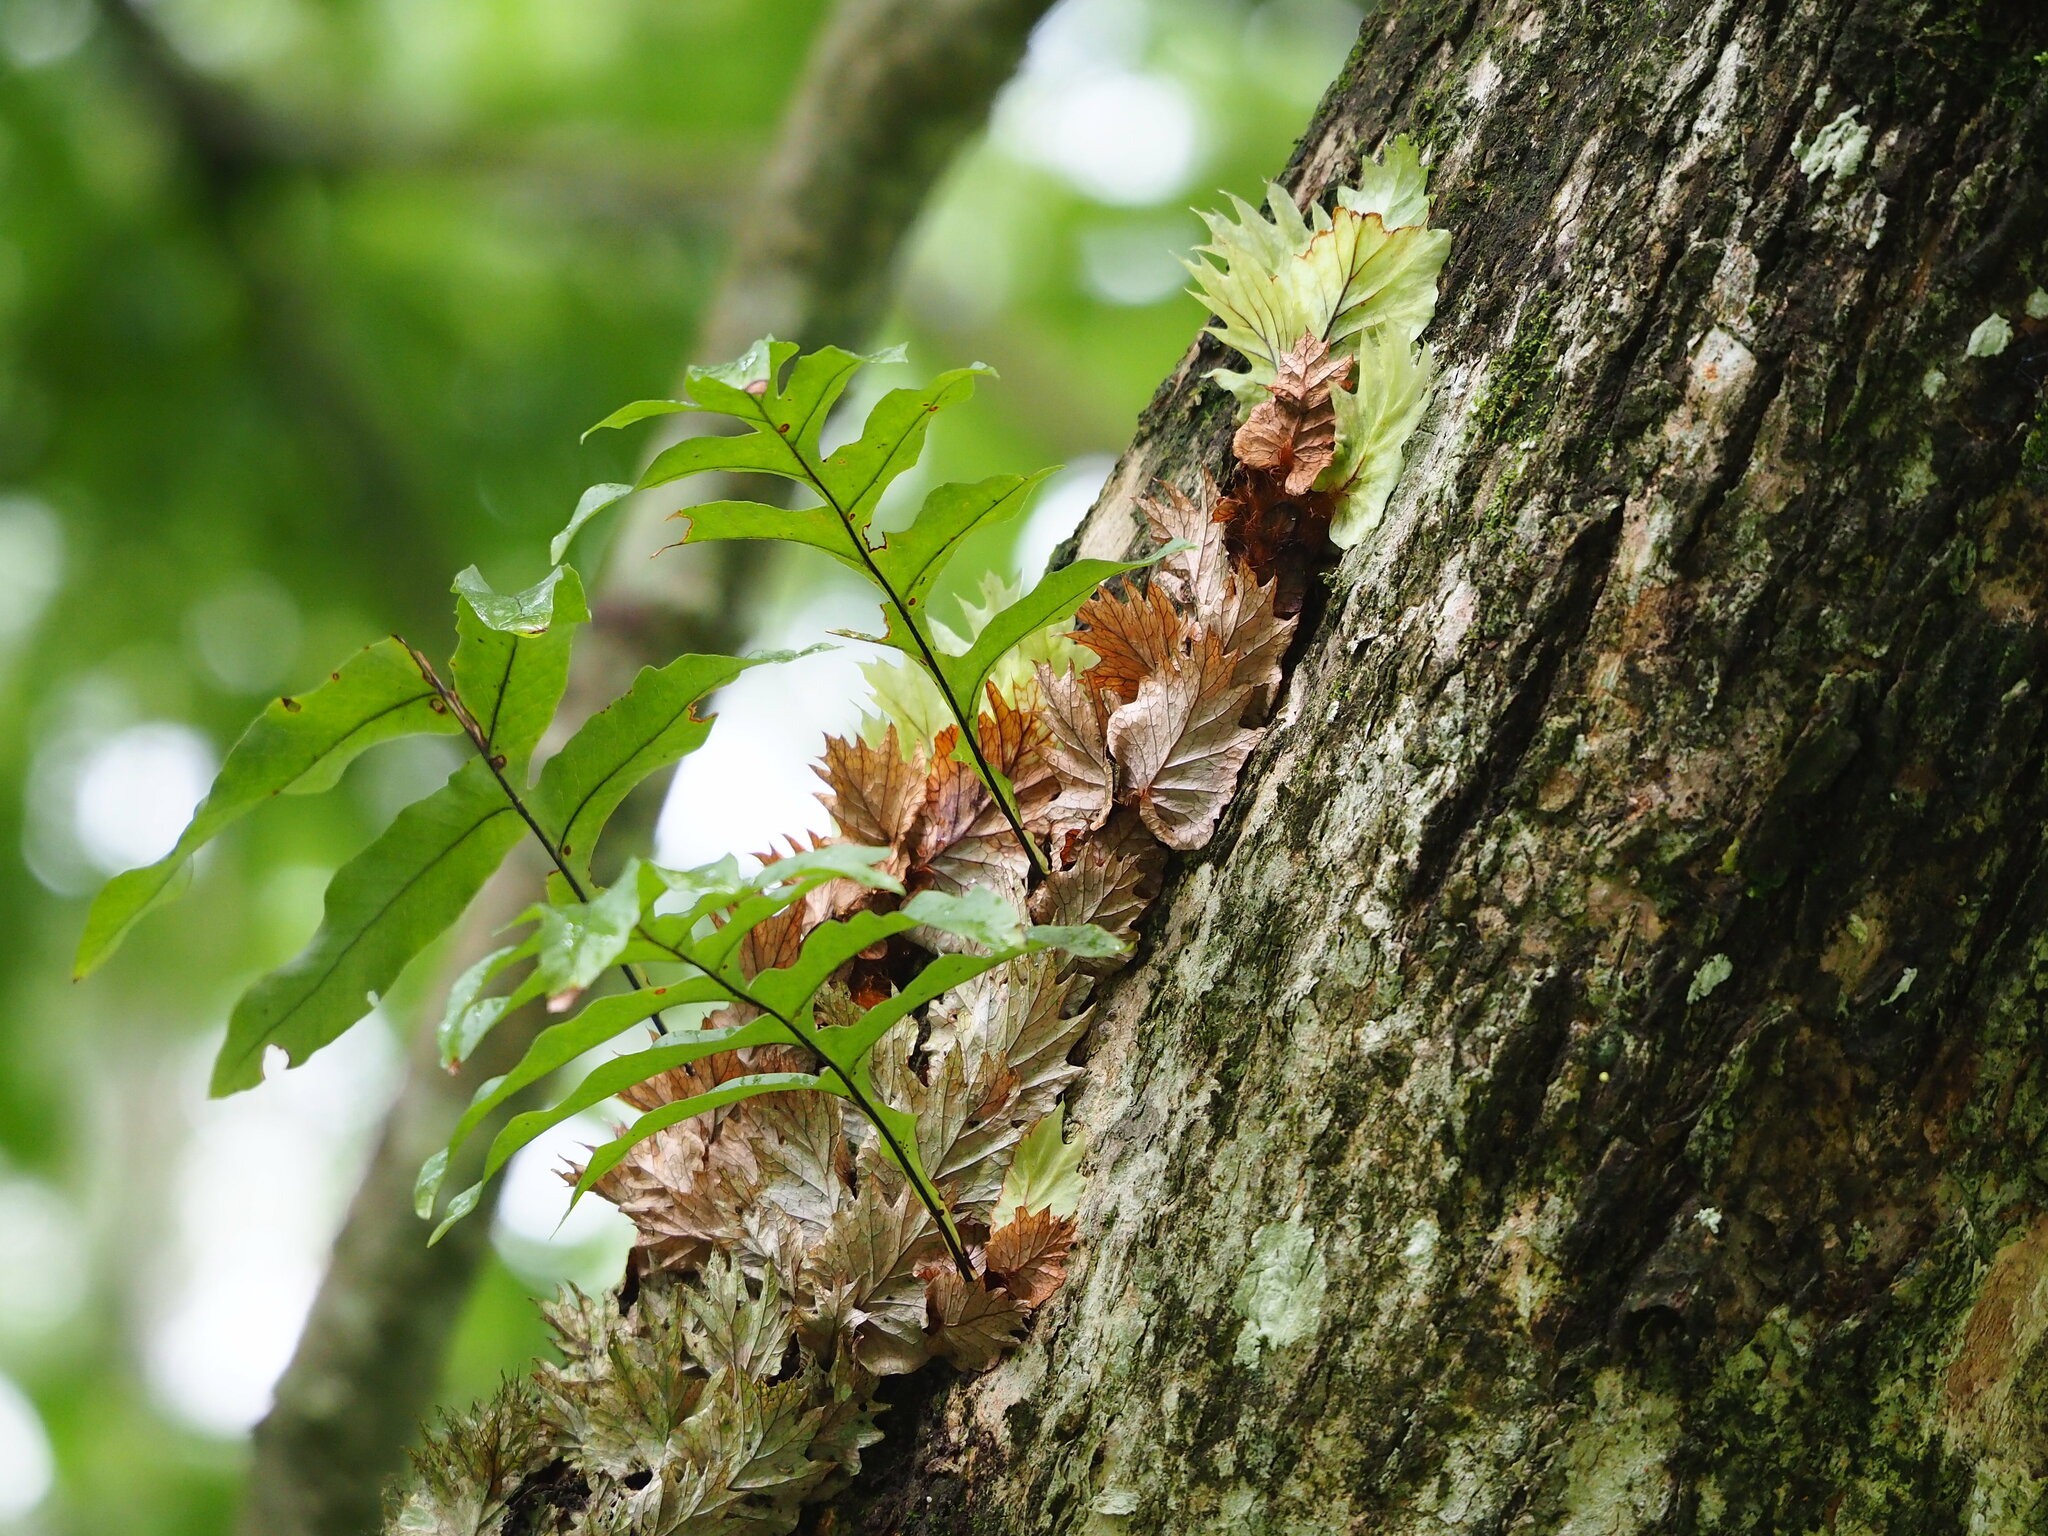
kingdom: Plantae
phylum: Tracheophyta
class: Polypodiopsida
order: Polypodiales
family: Polypodiaceae
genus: Drynaria
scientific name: Drynaria roosii
